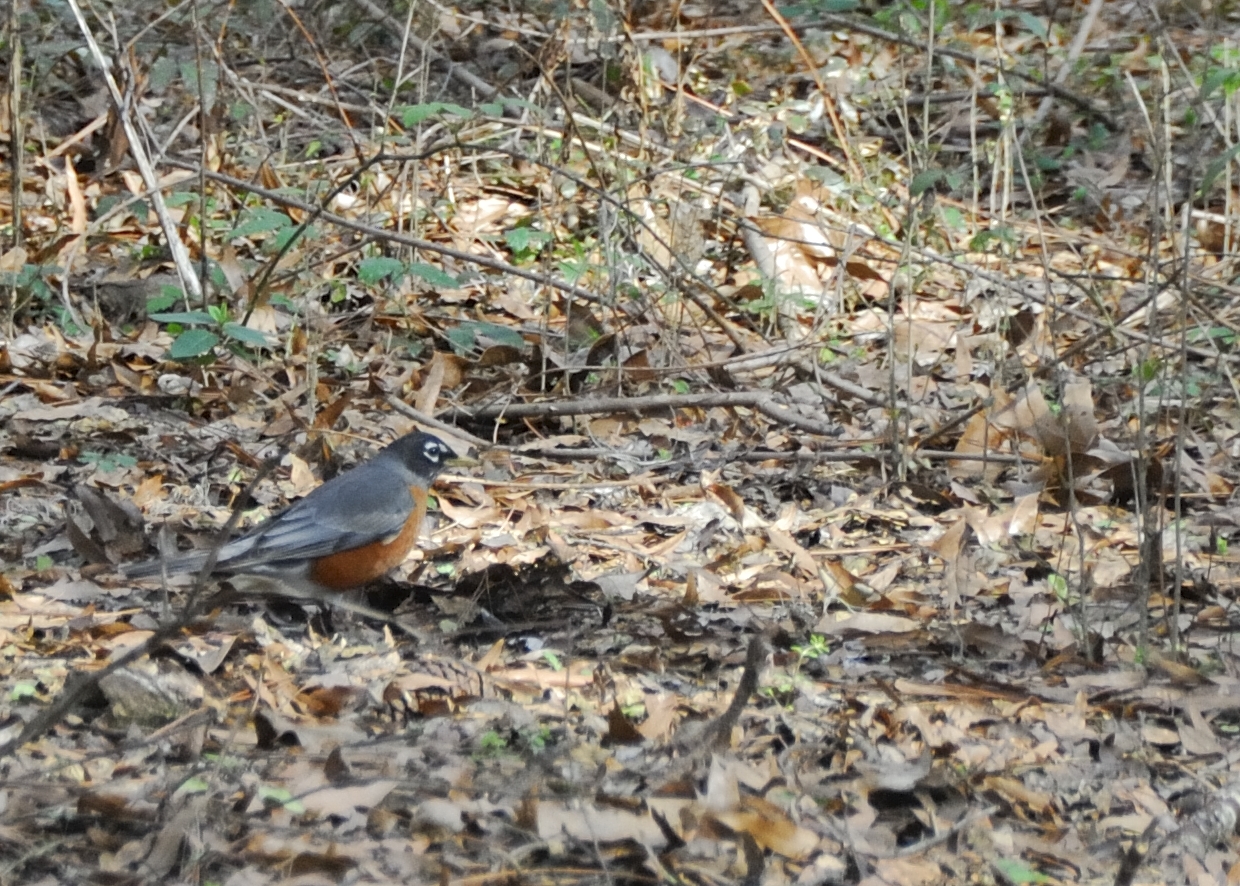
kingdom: Animalia
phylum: Chordata
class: Aves
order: Passeriformes
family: Turdidae
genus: Turdus
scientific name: Turdus migratorius
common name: American robin
